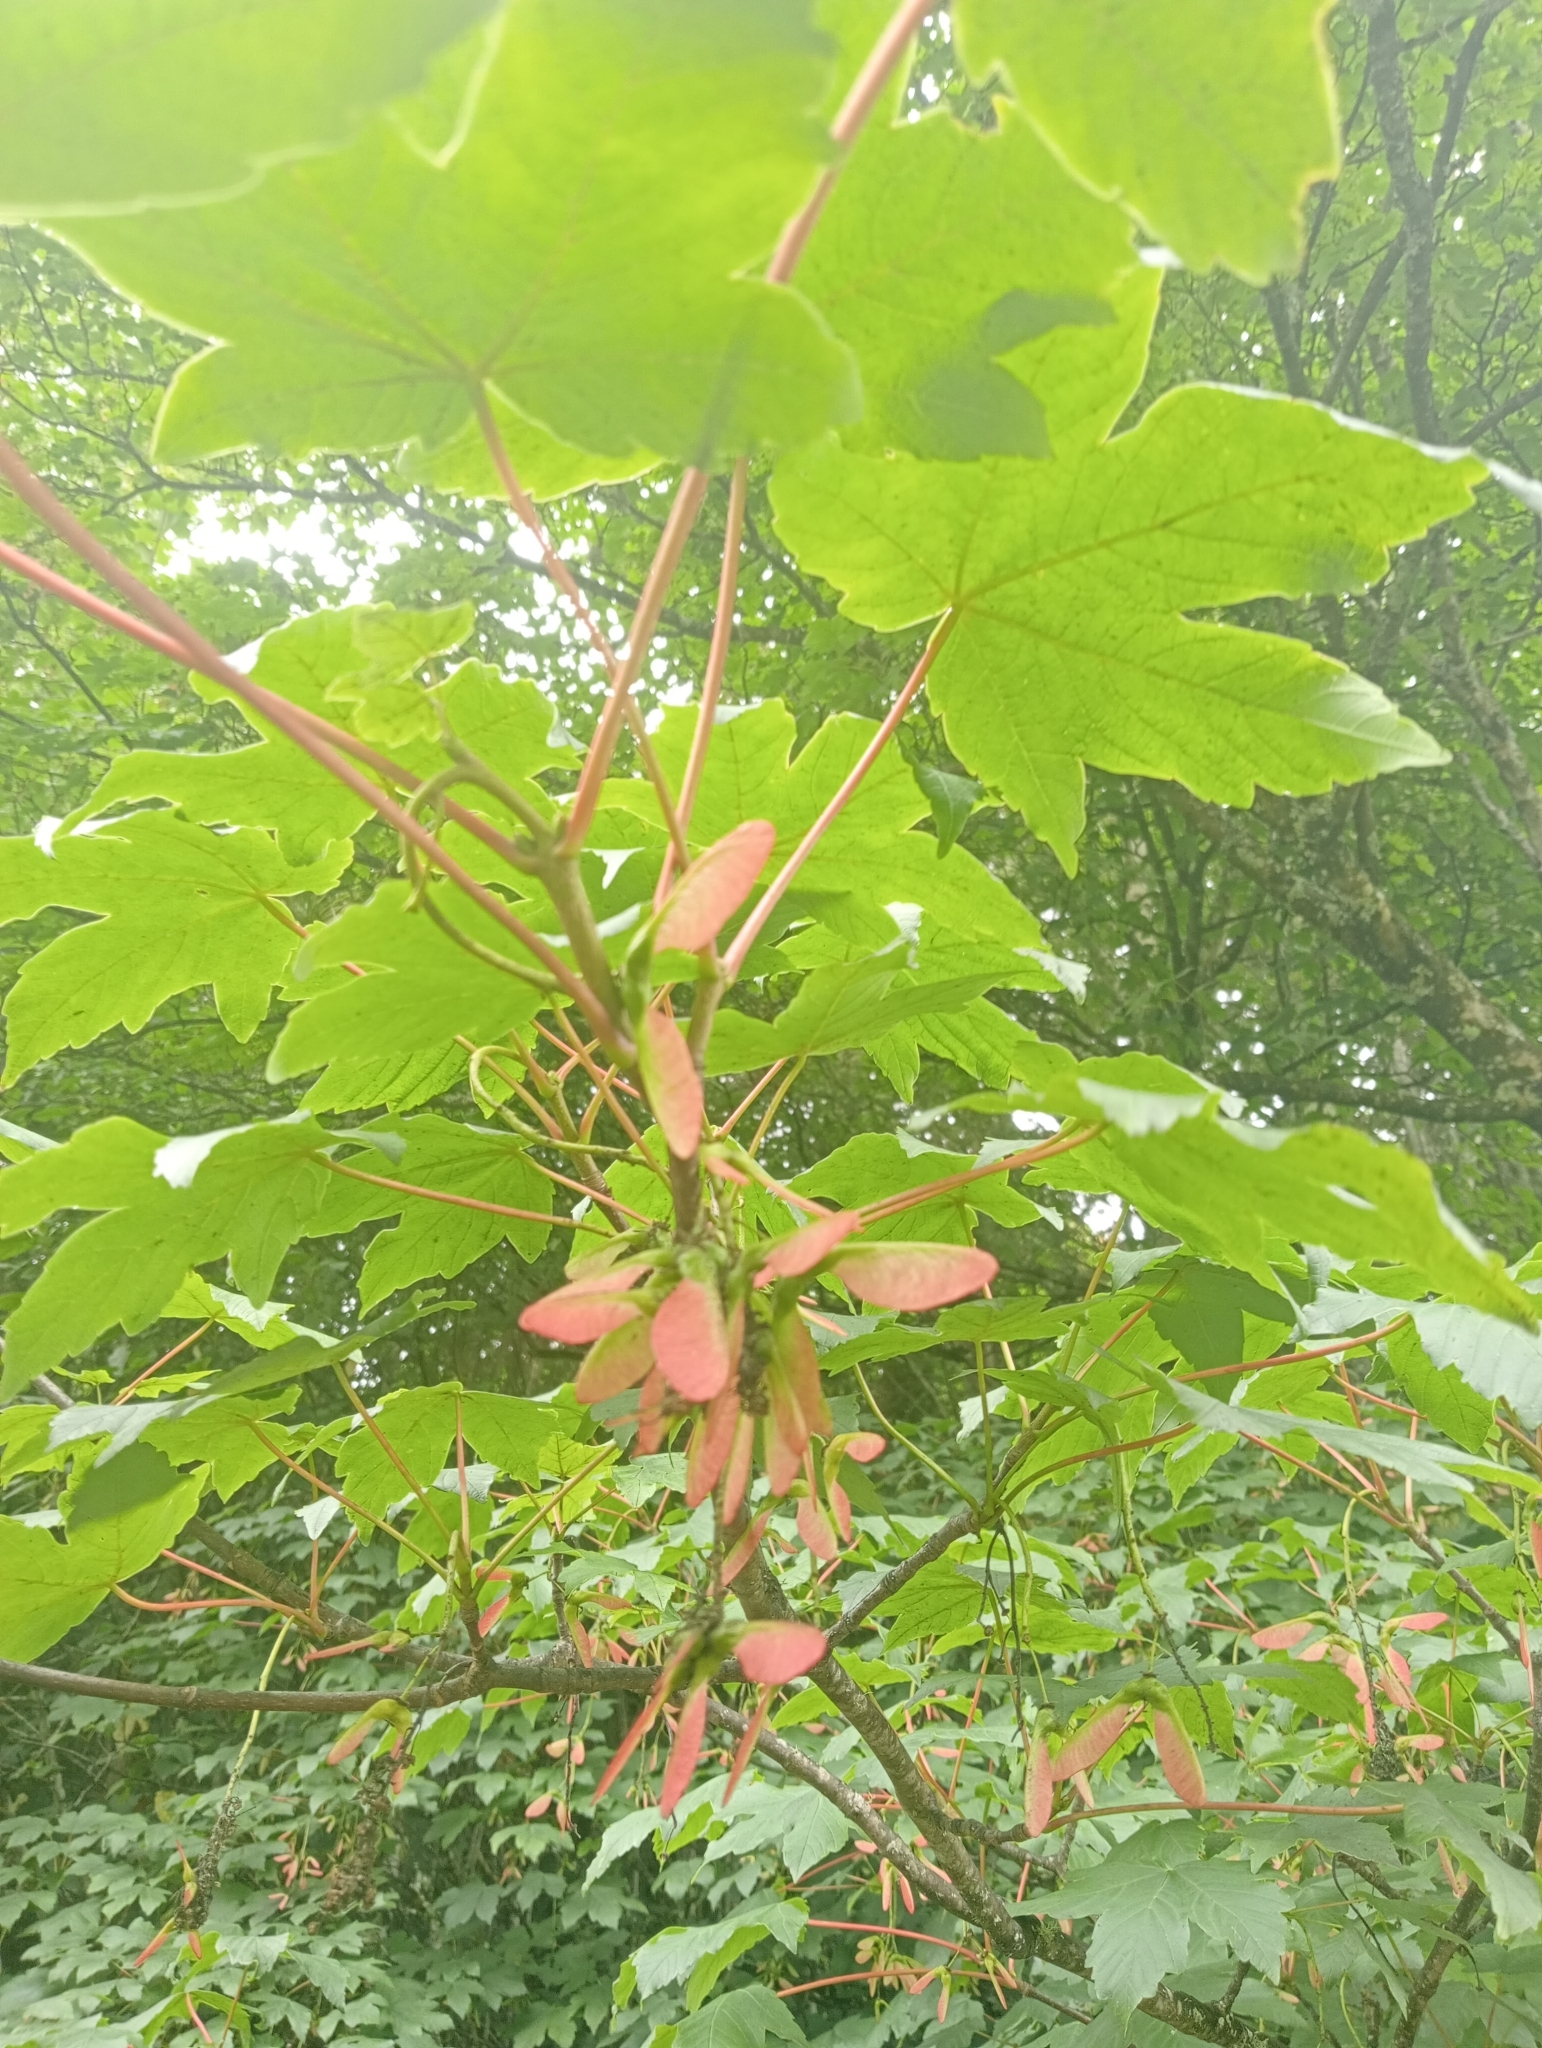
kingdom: Plantae
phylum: Tracheophyta
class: Magnoliopsida
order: Sapindales
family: Sapindaceae
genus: Acer
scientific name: Acer pseudoplatanus
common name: Sycamore
